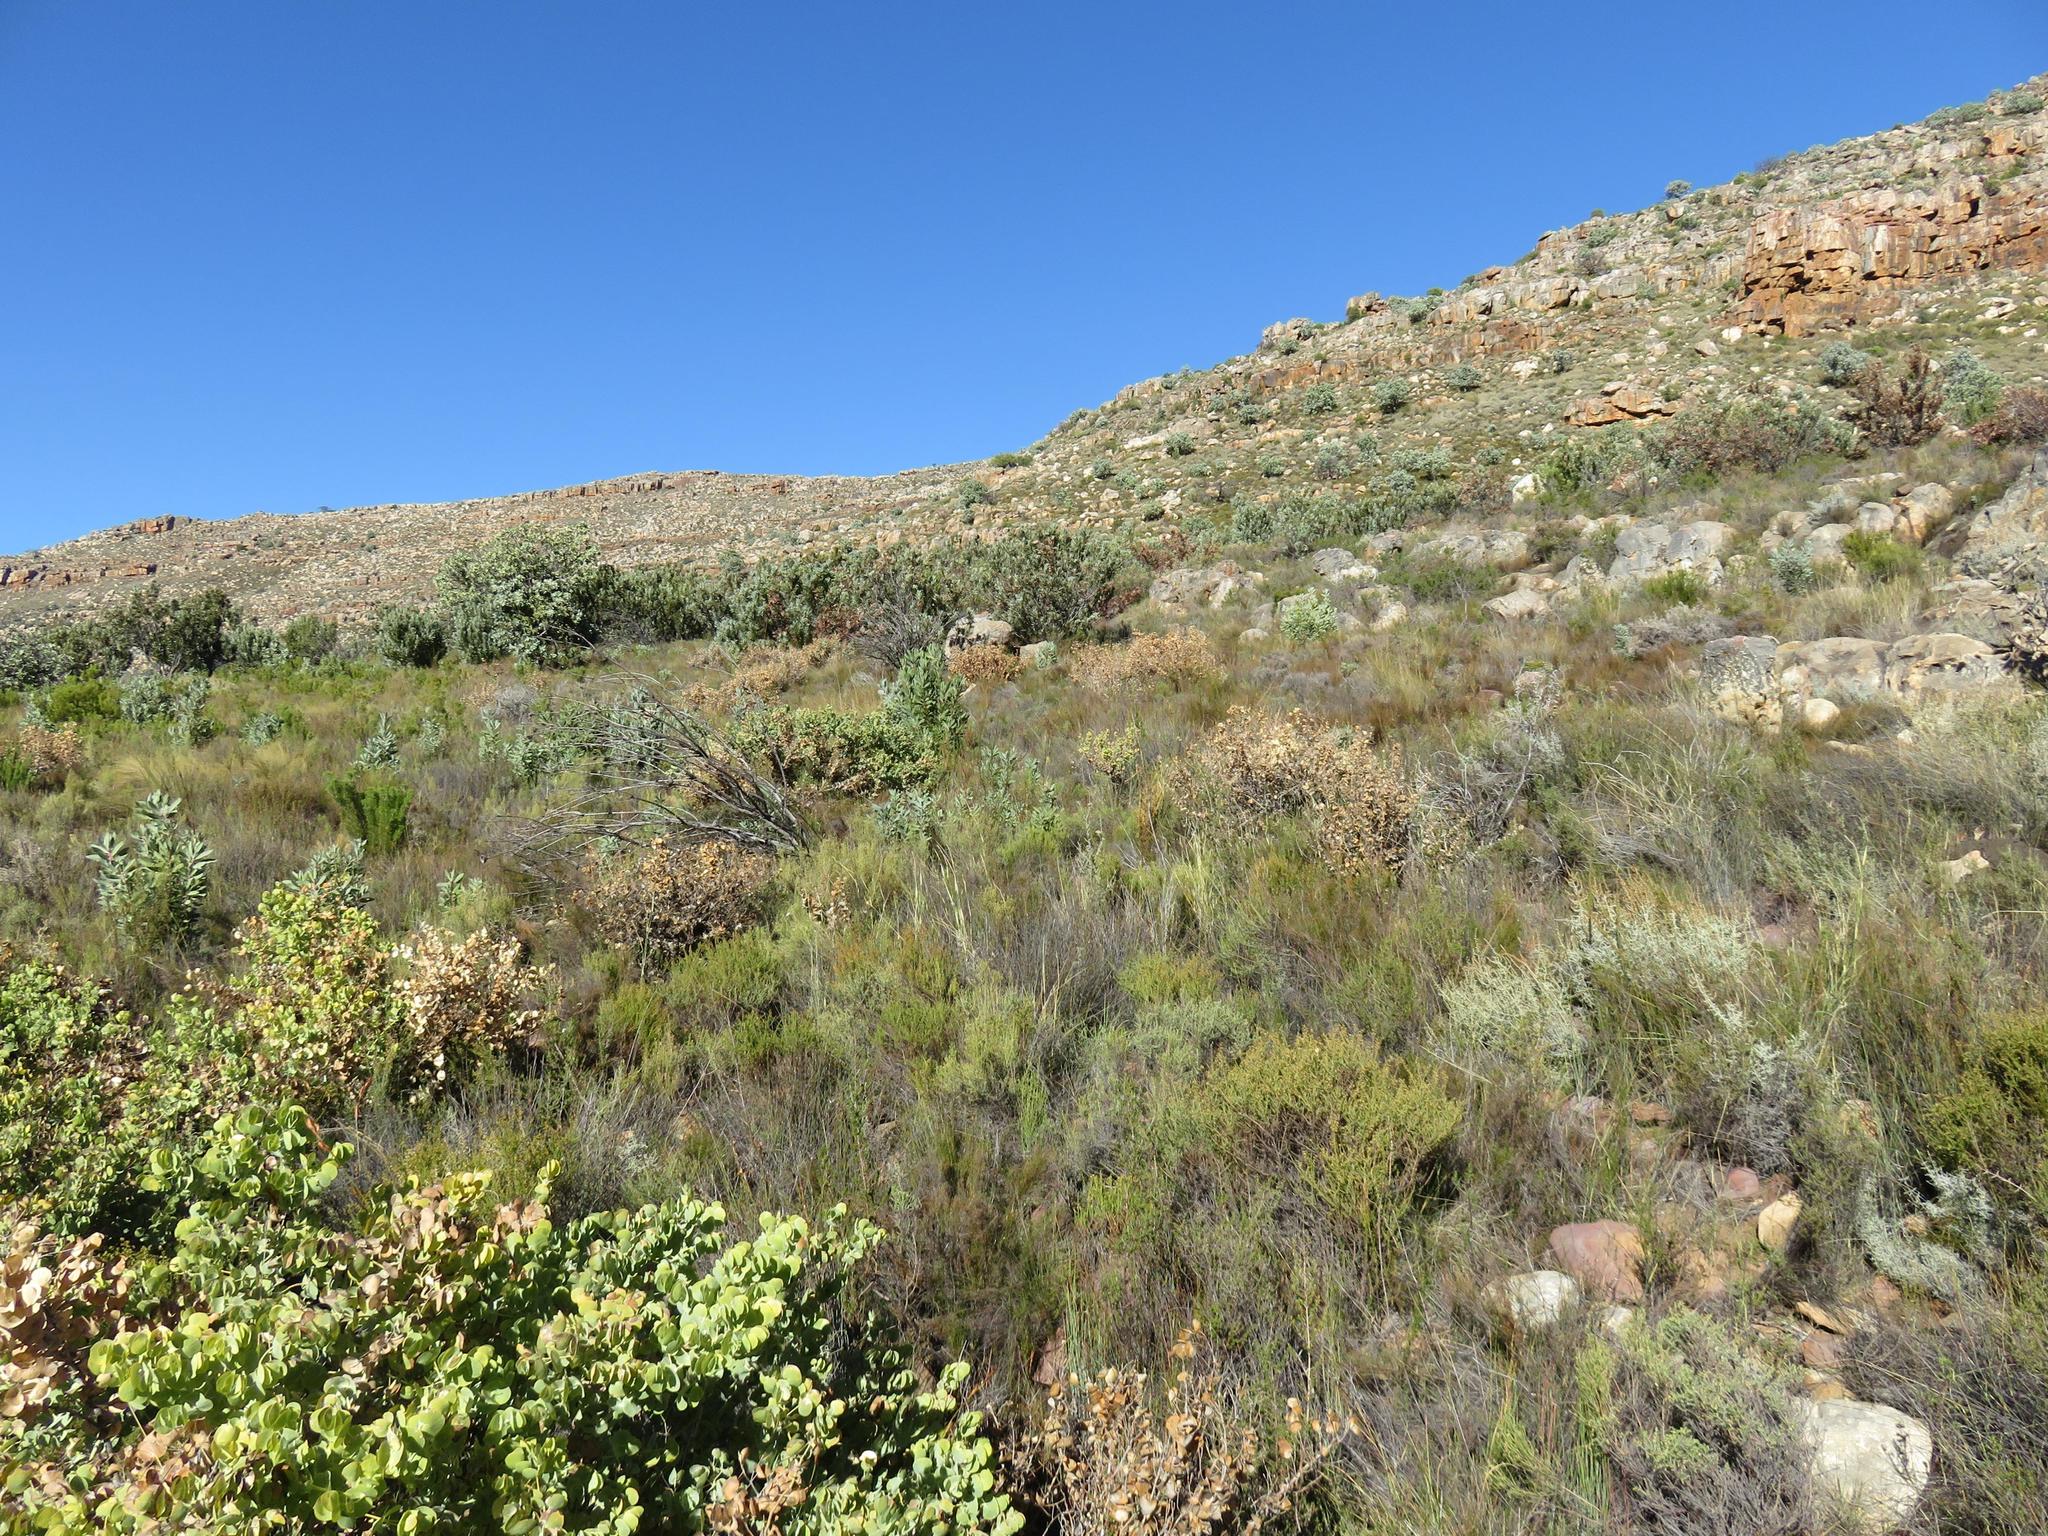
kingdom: Plantae
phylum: Tracheophyta
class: Magnoliopsida
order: Fabales
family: Fabaceae
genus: Rafnia
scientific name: Rafnia amplexicaulis
